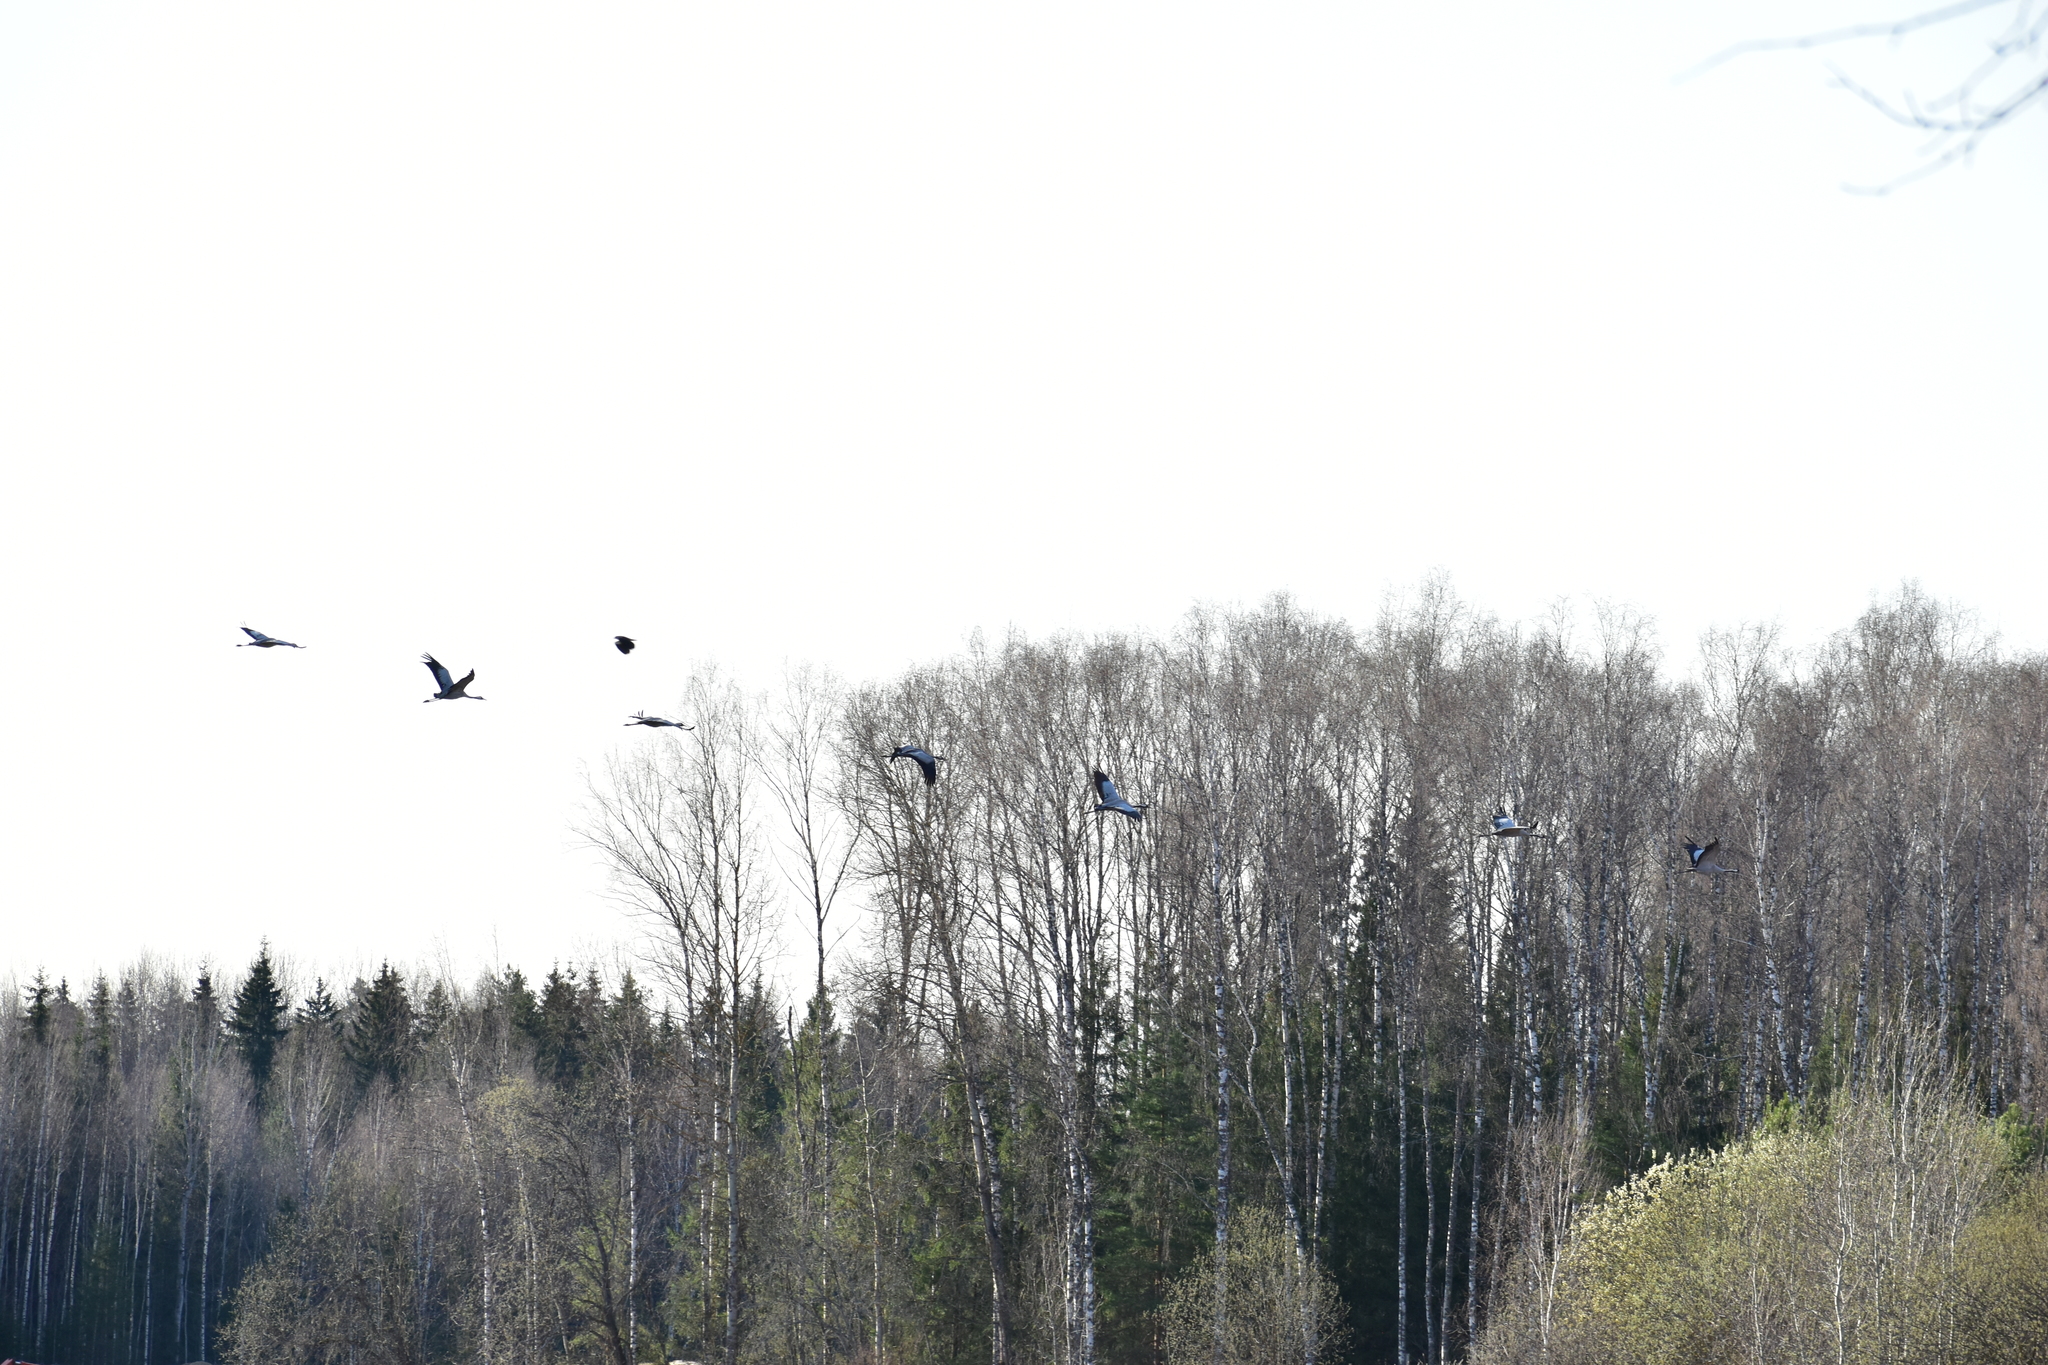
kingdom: Animalia
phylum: Chordata
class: Aves
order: Gruiformes
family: Gruidae
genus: Grus
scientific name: Grus grus
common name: Common crane
